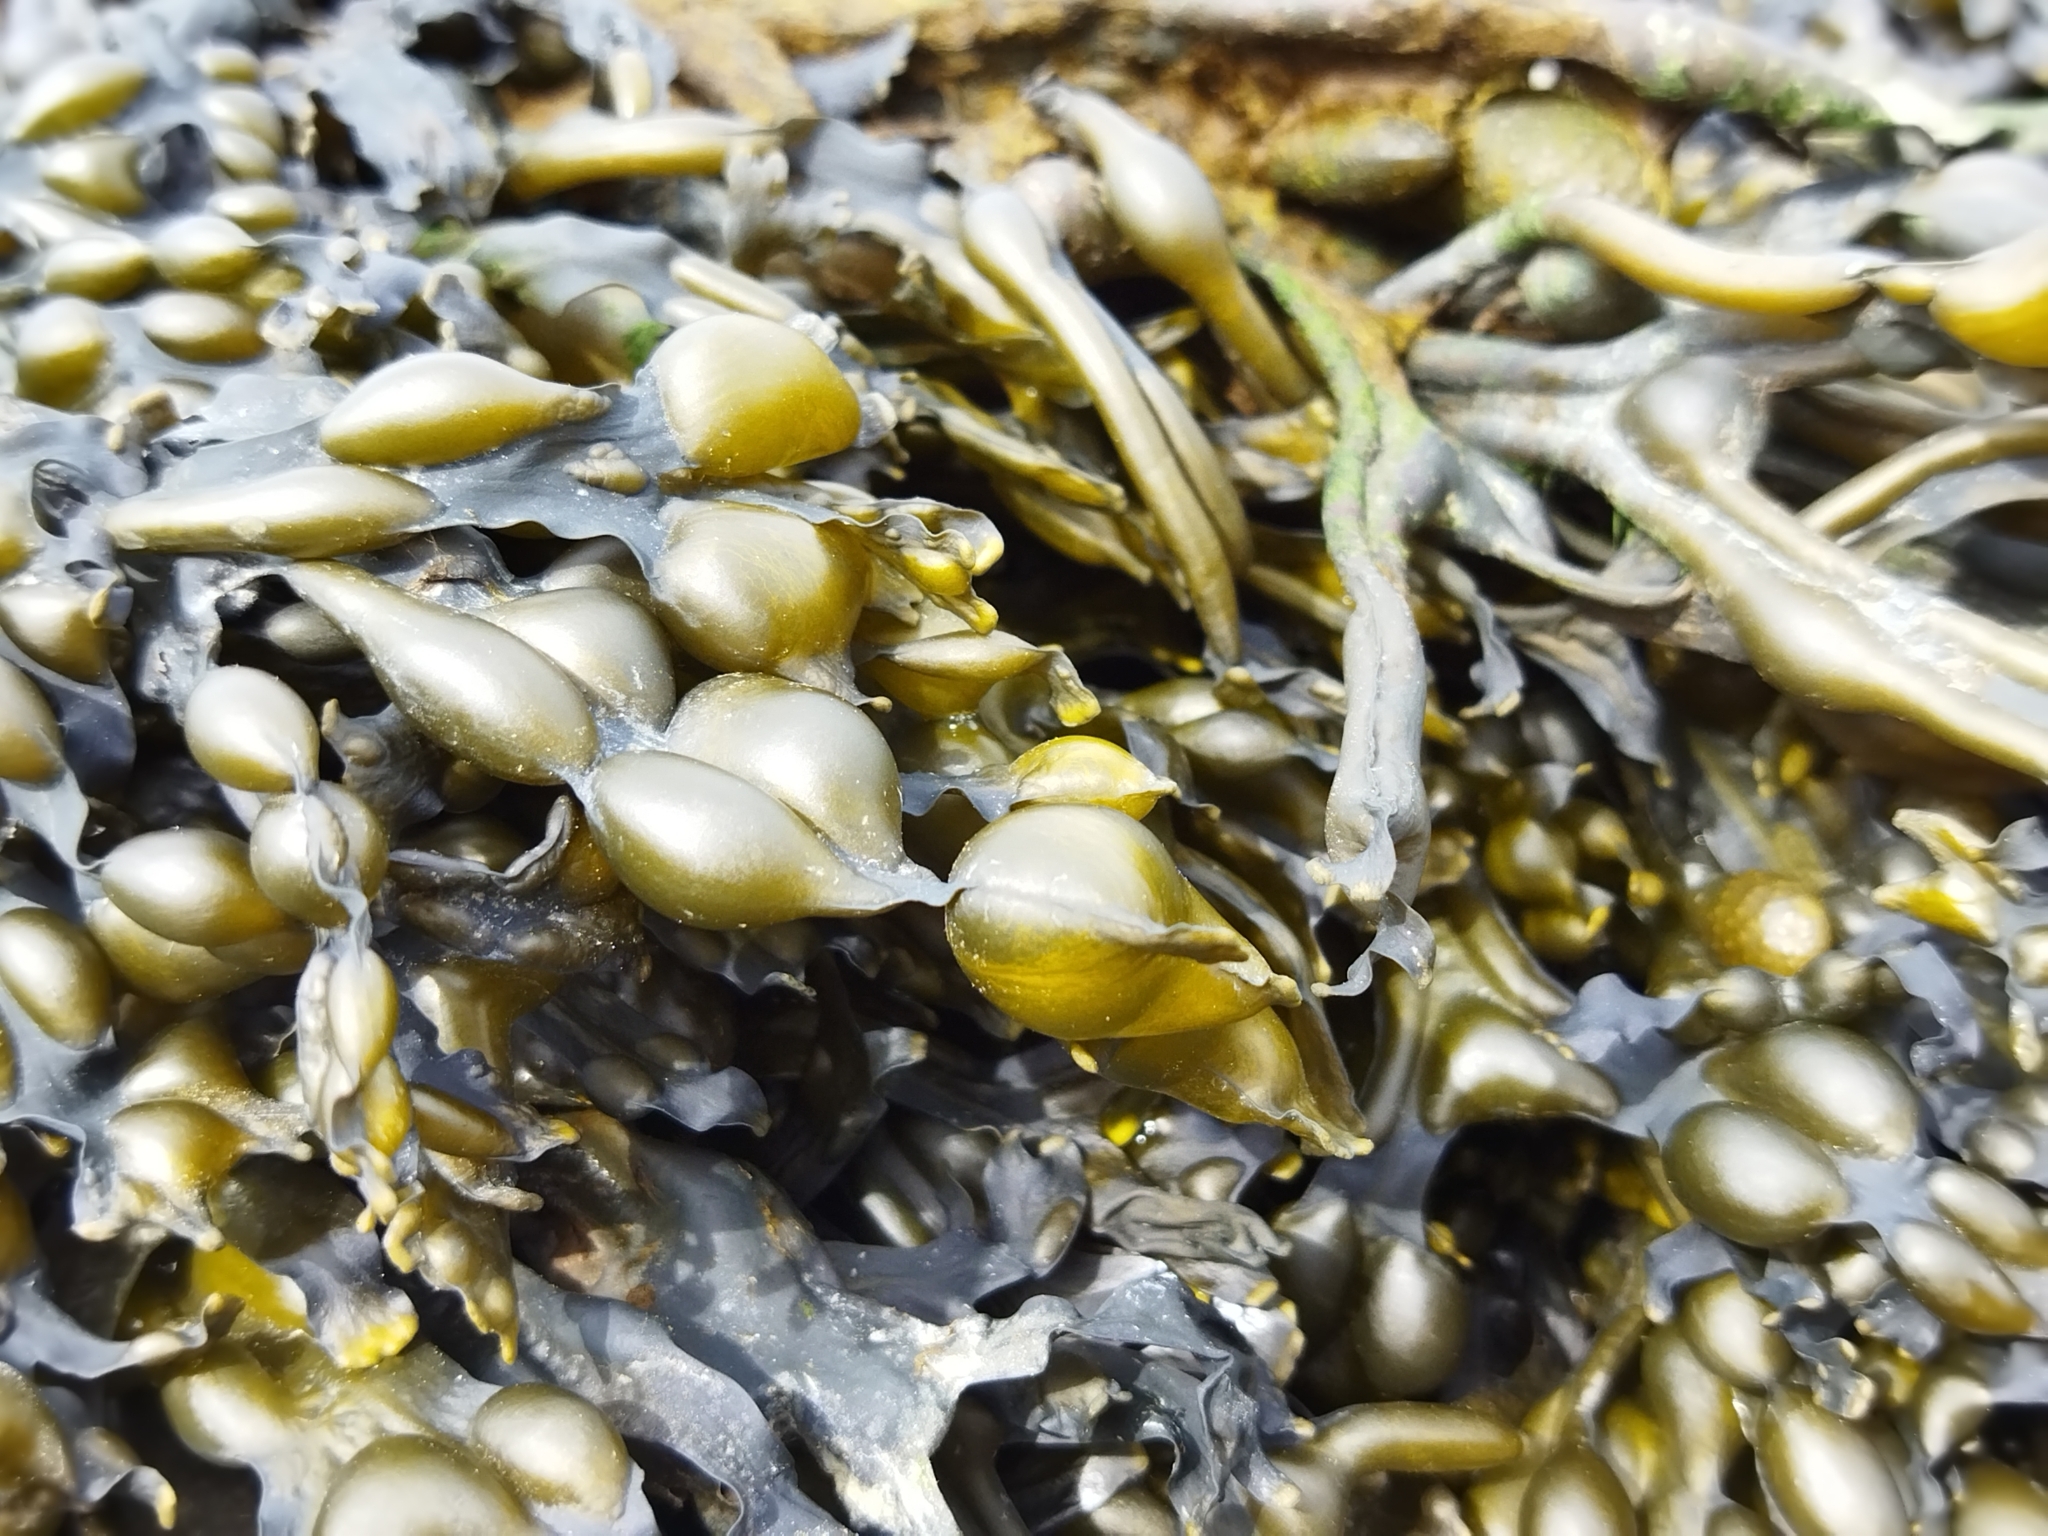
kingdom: Chromista
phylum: Ochrophyta
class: Phaeophyceae
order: Fucales
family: Fucaceae
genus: Fucus
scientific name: Fucus vesiculosus
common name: Bladder wrack
